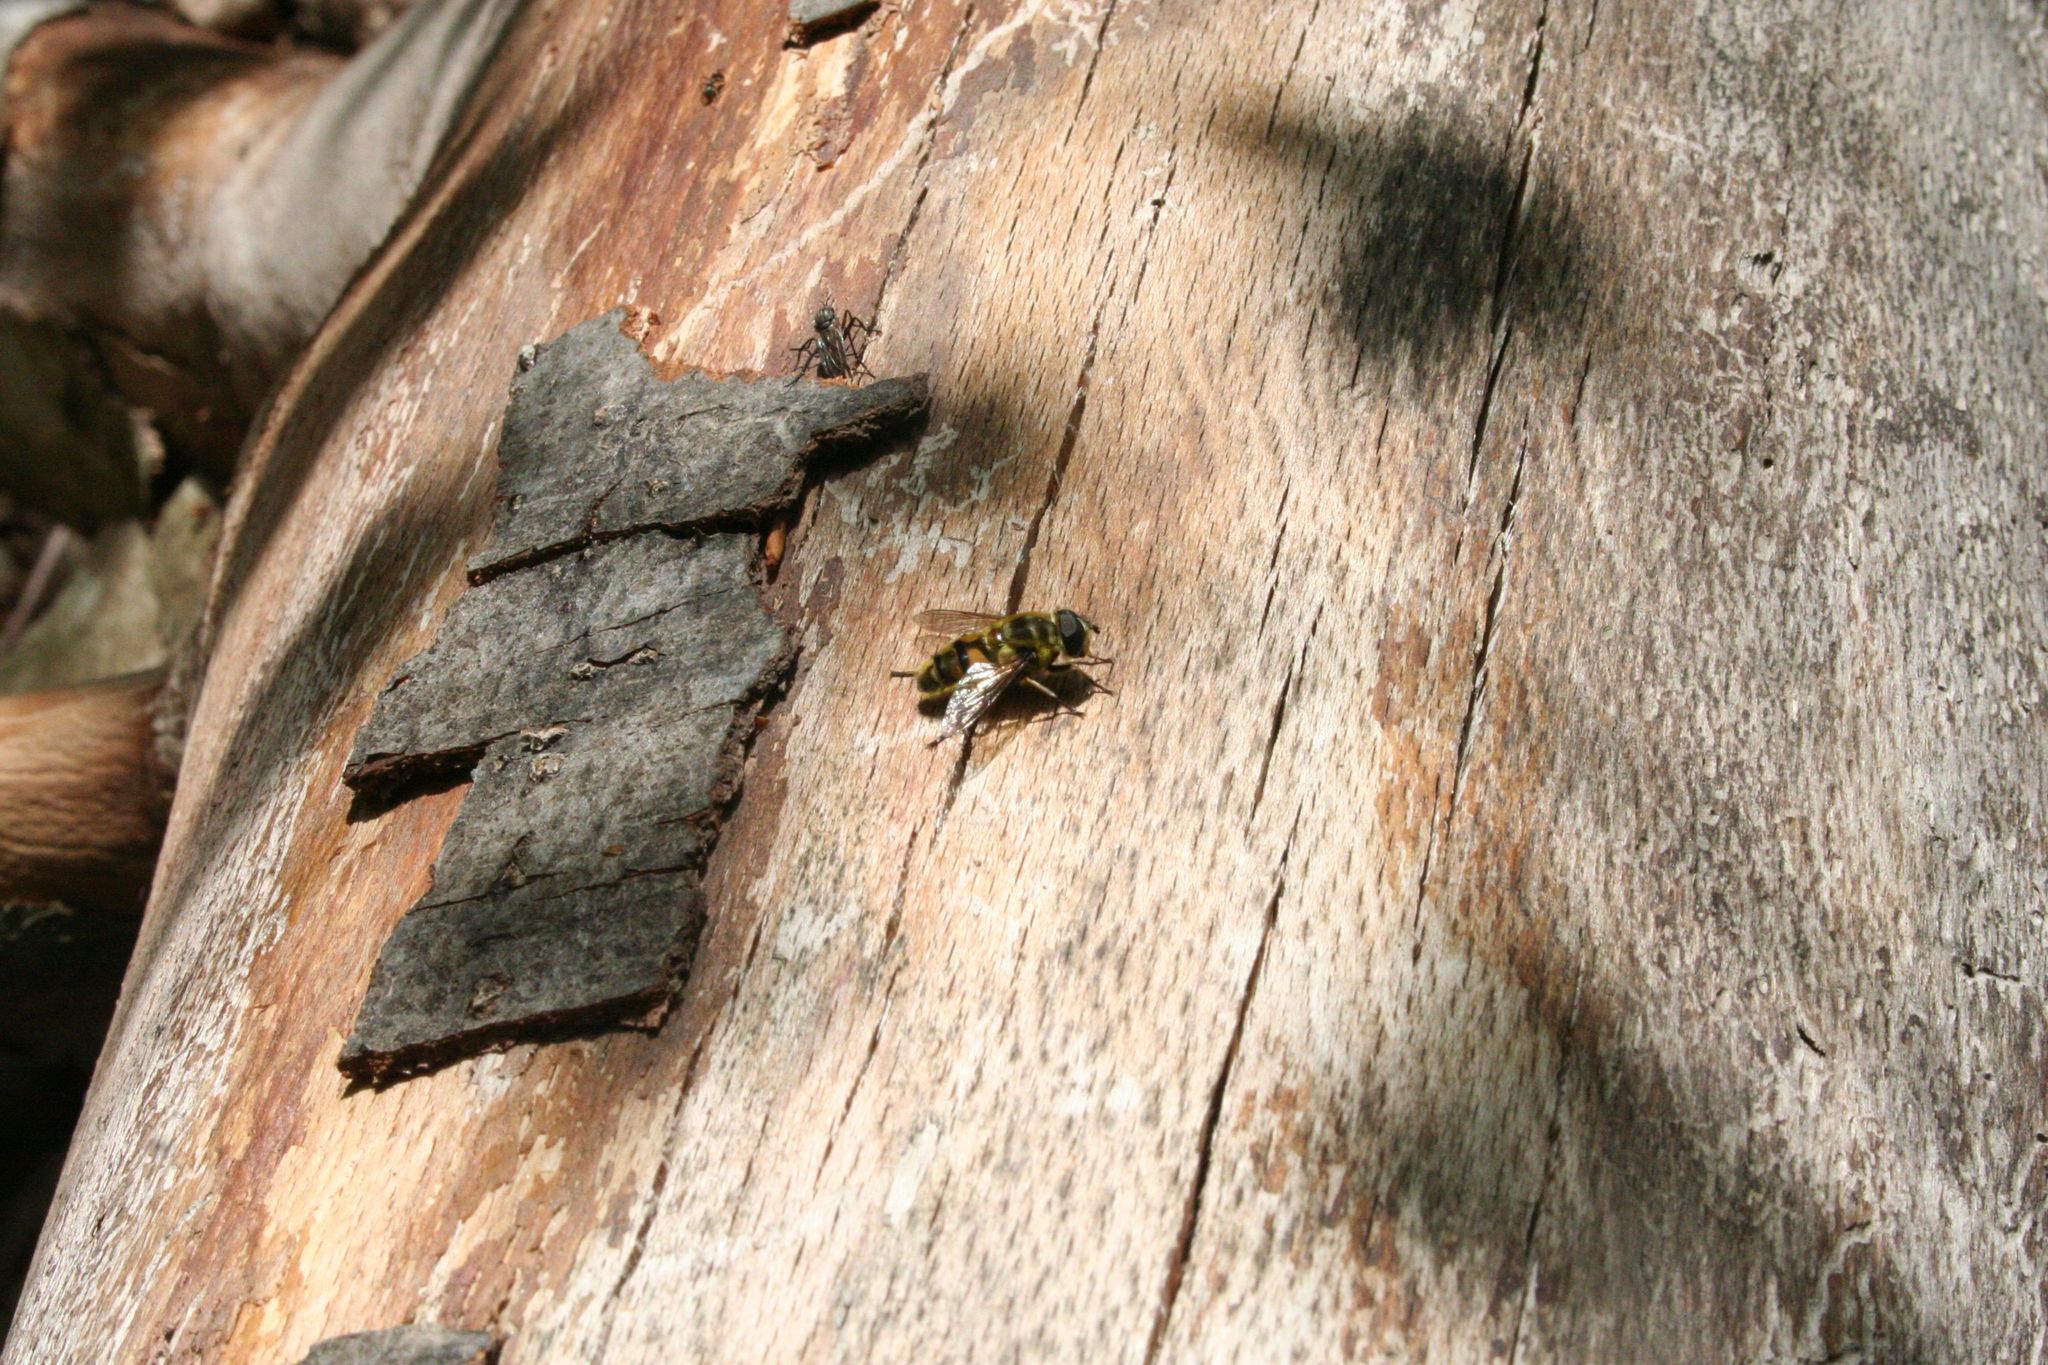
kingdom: Animalia
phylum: Arthropoda
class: Insecta
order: Diptera
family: Syrphidae
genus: Myathropa
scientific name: Myathropa florea
